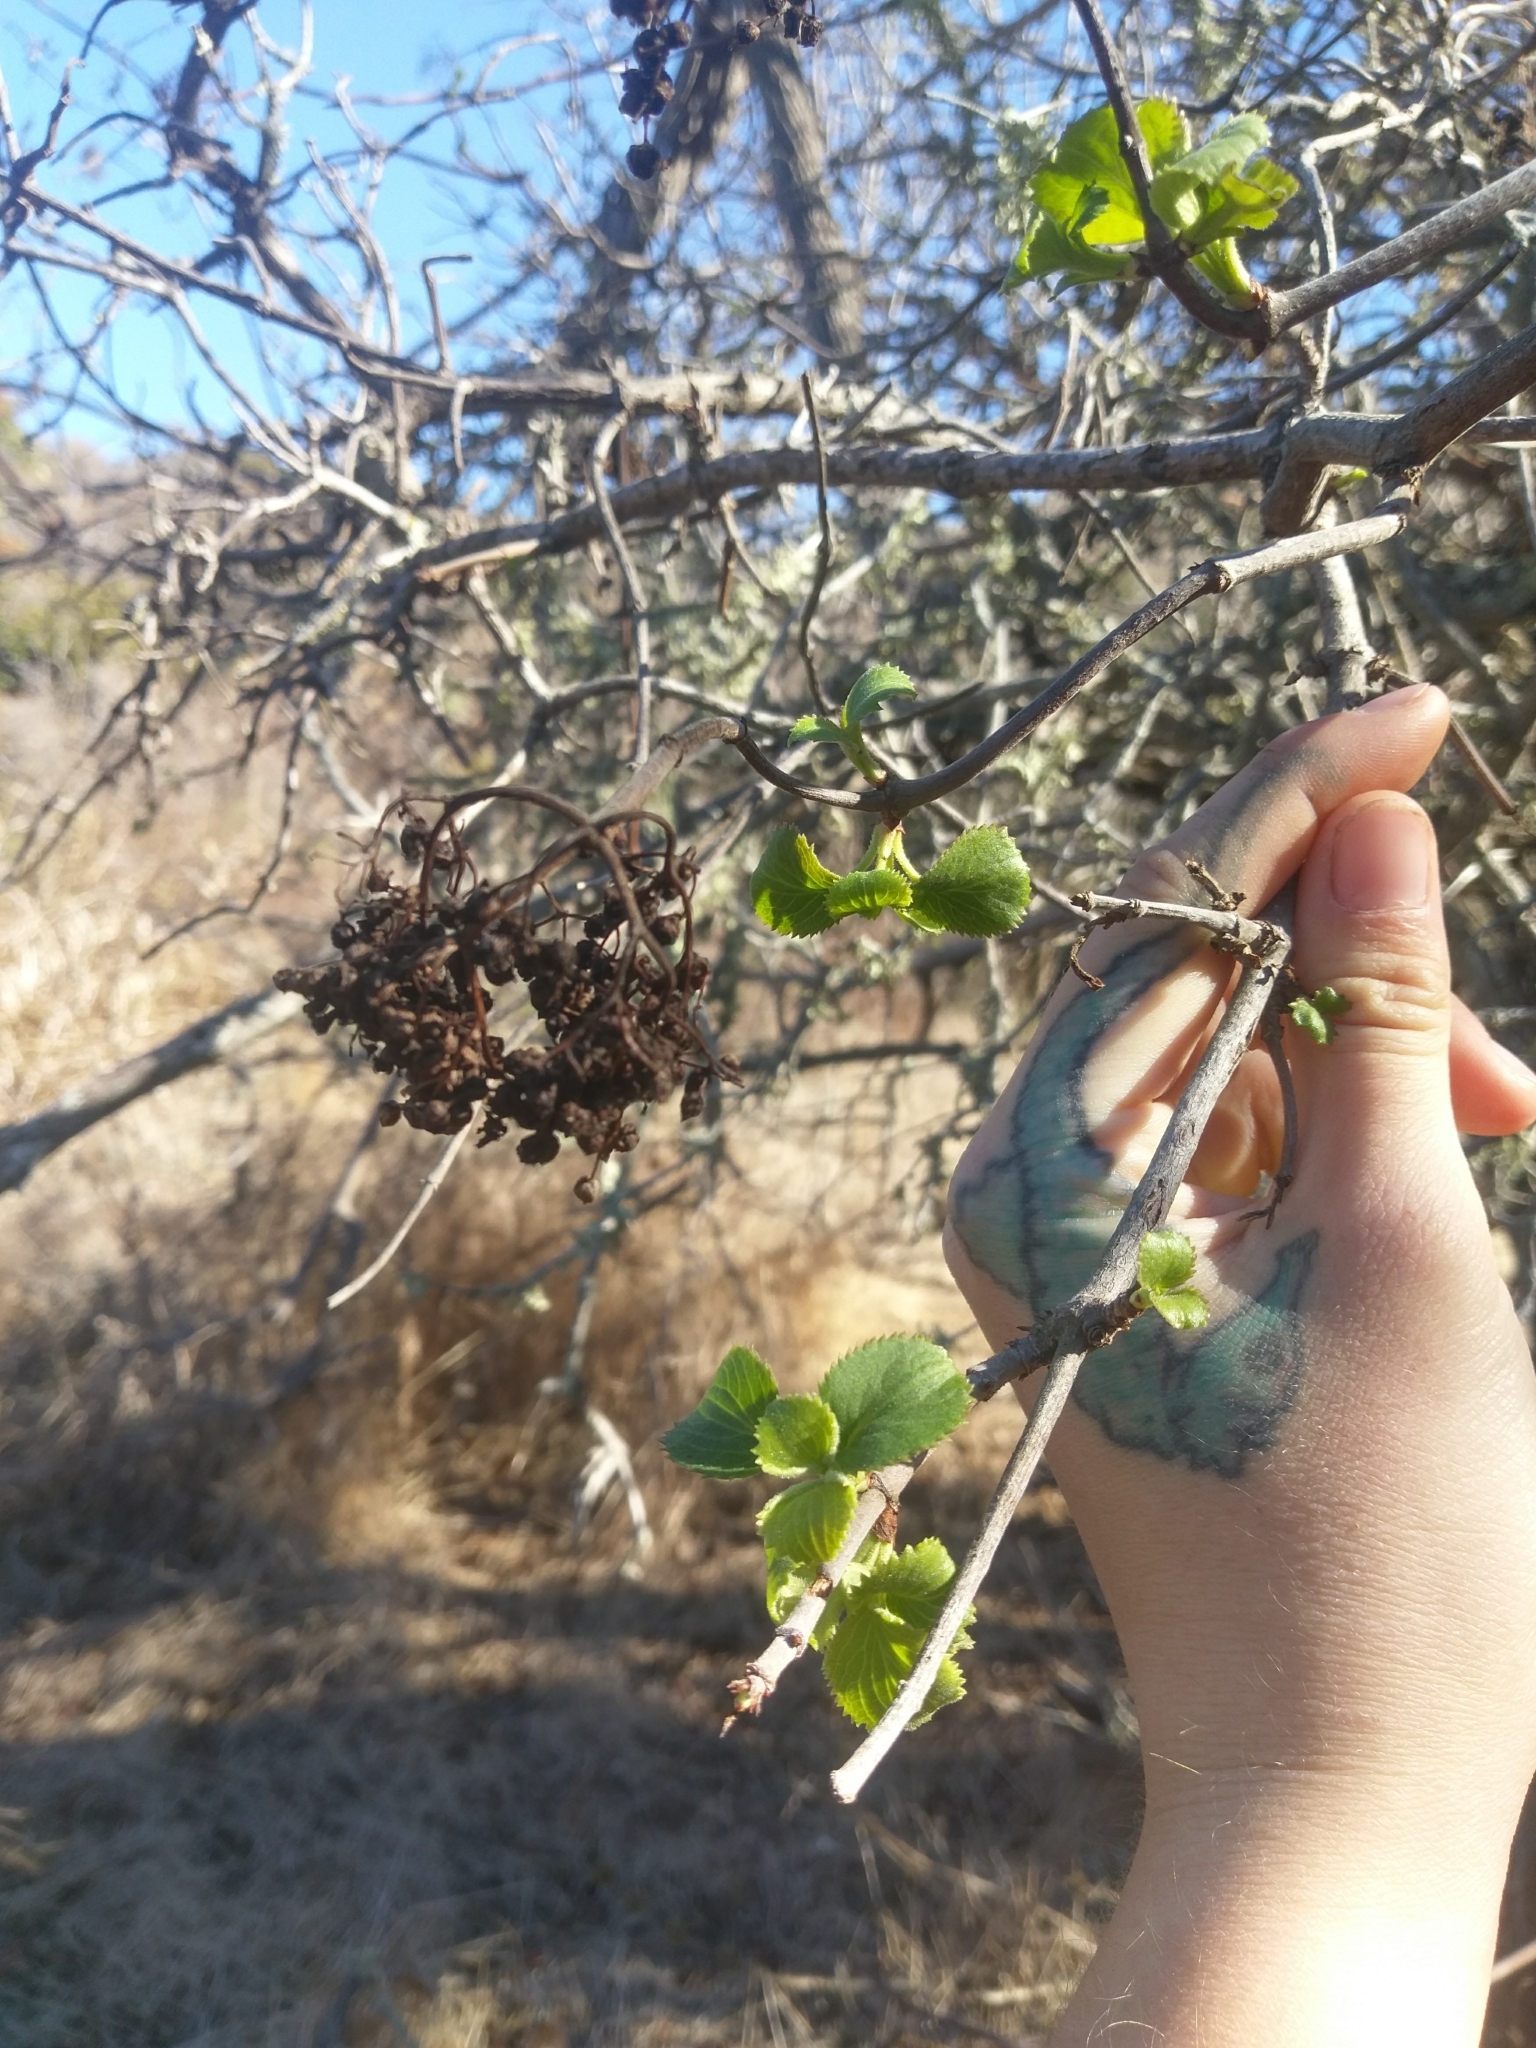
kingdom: Plantae
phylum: Tracheophyta
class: Magnoliopsida
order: Dipsacales
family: Viburnaceae
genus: Sambucus
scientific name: Sambucus cerulea
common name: Blue elder
